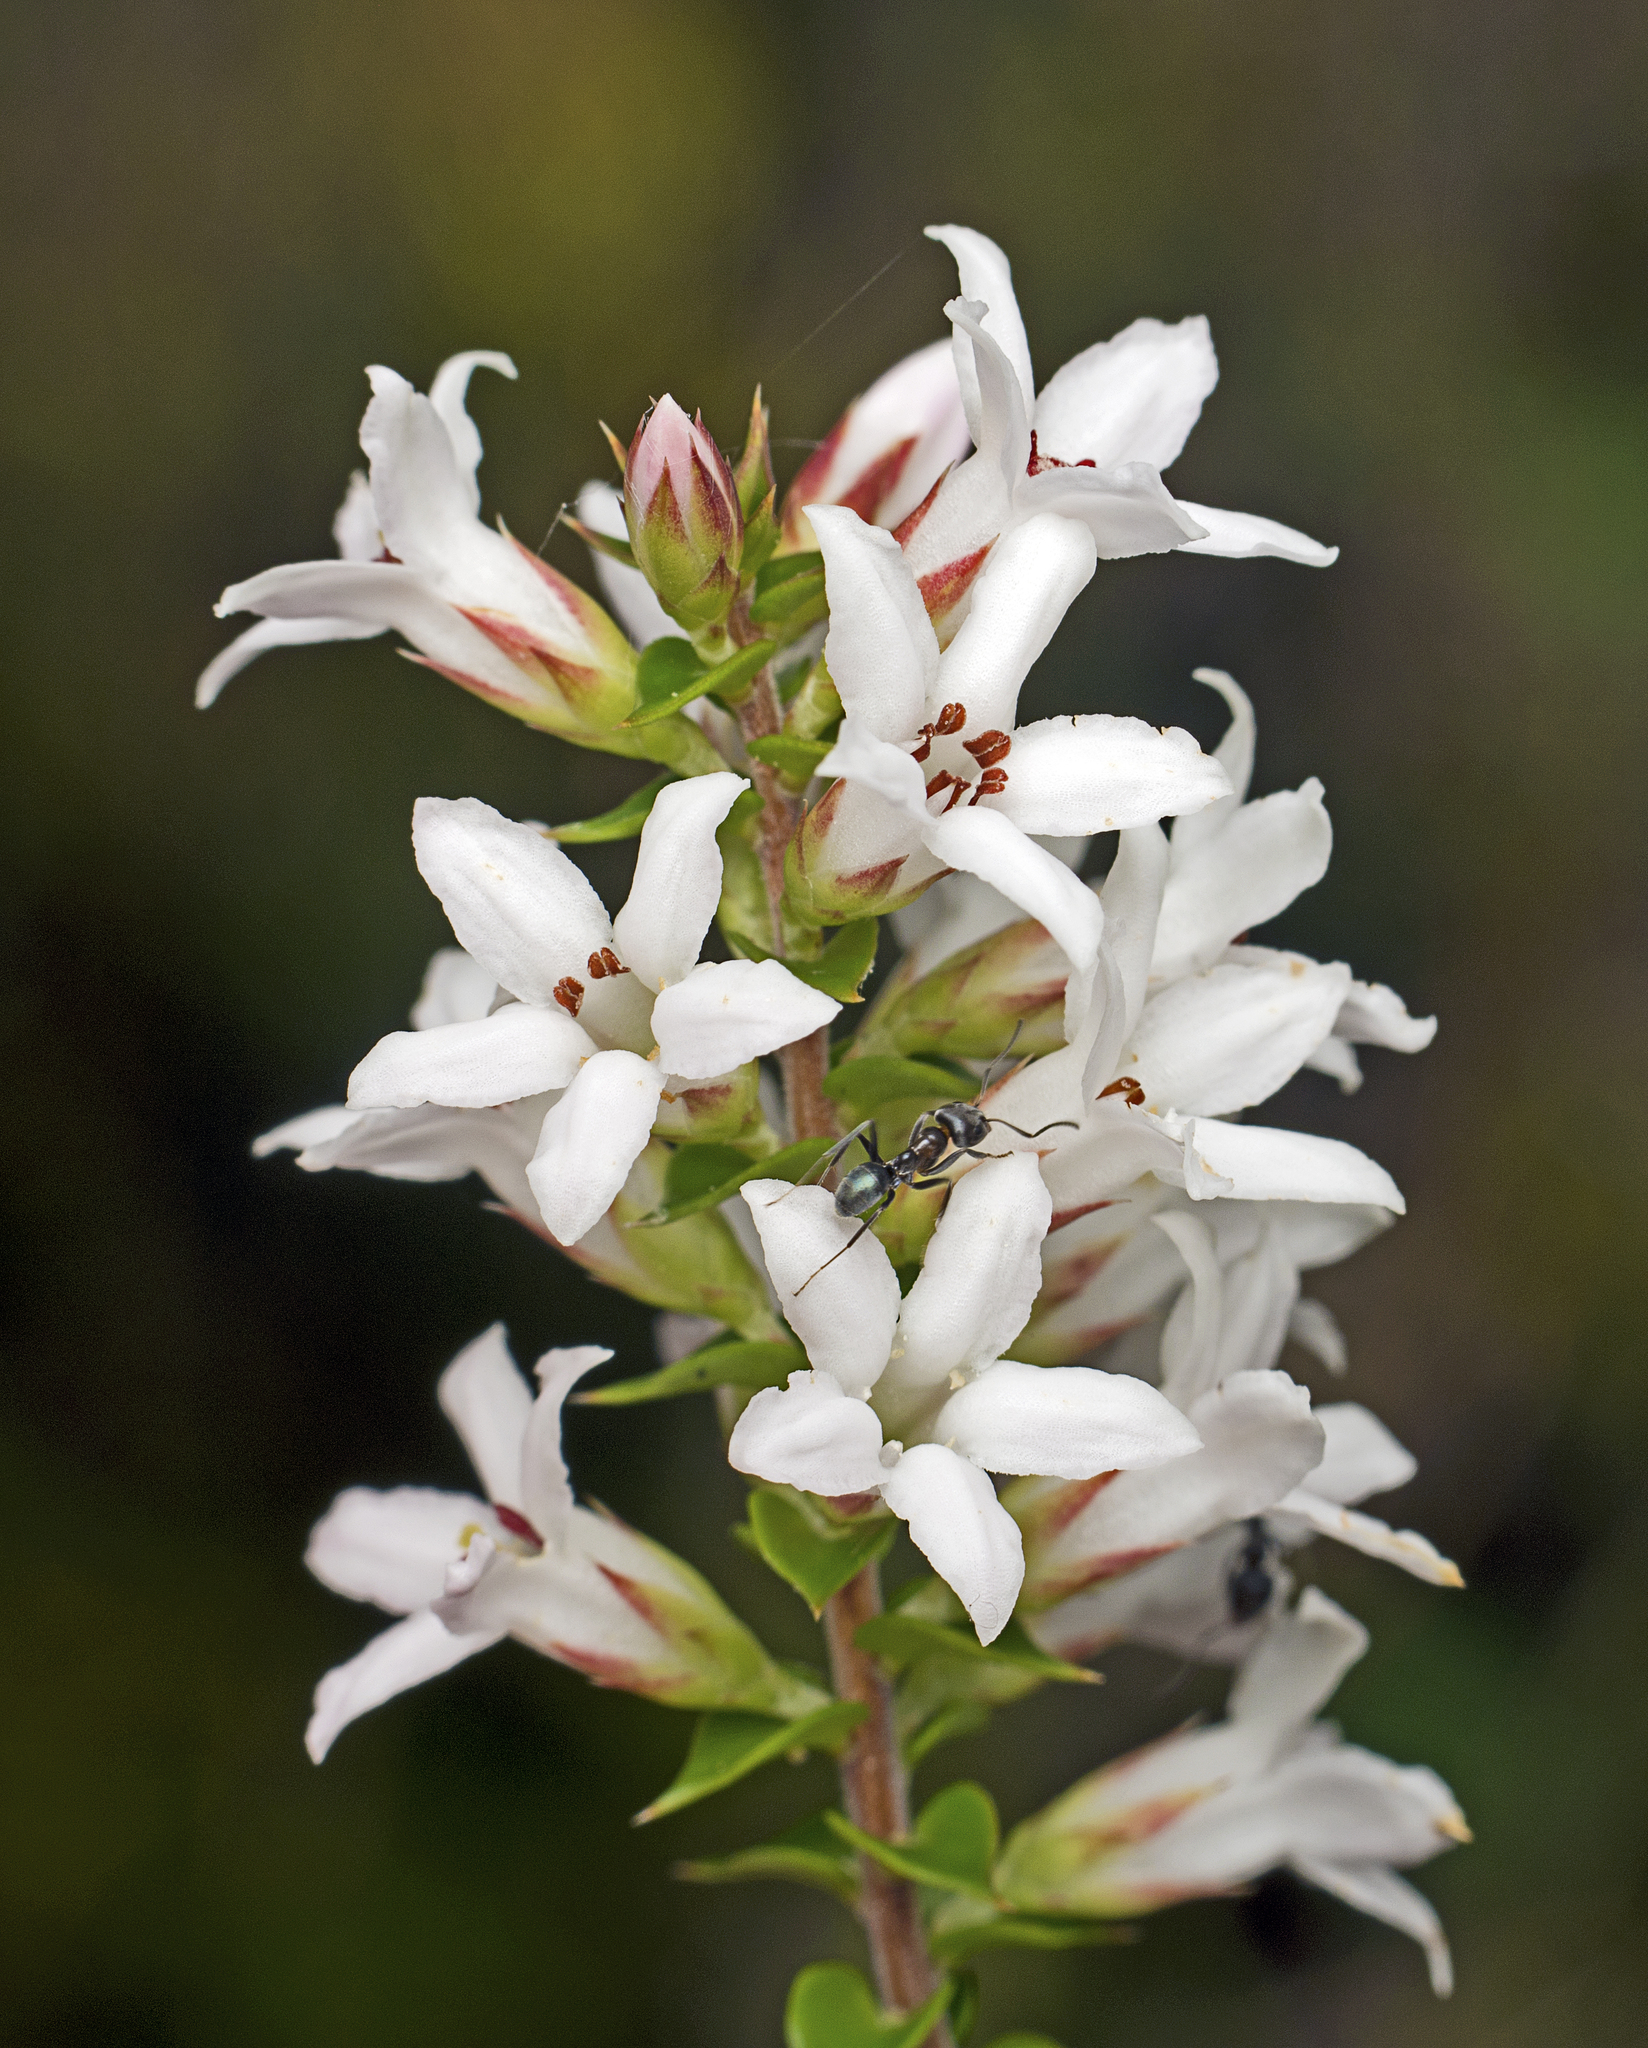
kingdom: Plantae
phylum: Tracheophyta
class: Magnoliopsida
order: Ericales
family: Ericaceae
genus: Epacris
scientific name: Epacris pulchella
